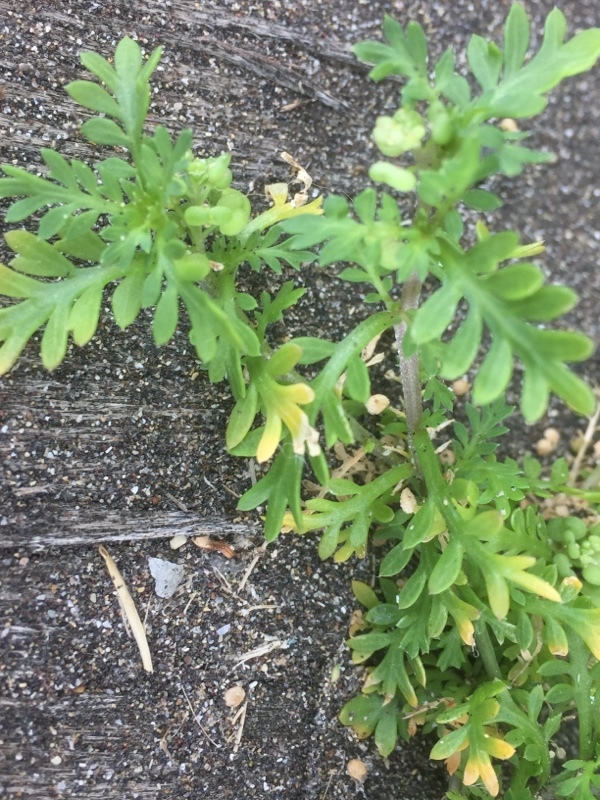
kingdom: Plantae
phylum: Tracheophyta
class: Magnoliopsida
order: Brassicales
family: Brassicaceae
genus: Lepidium
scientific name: Lepidium didymum
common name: Lesser swinecress
